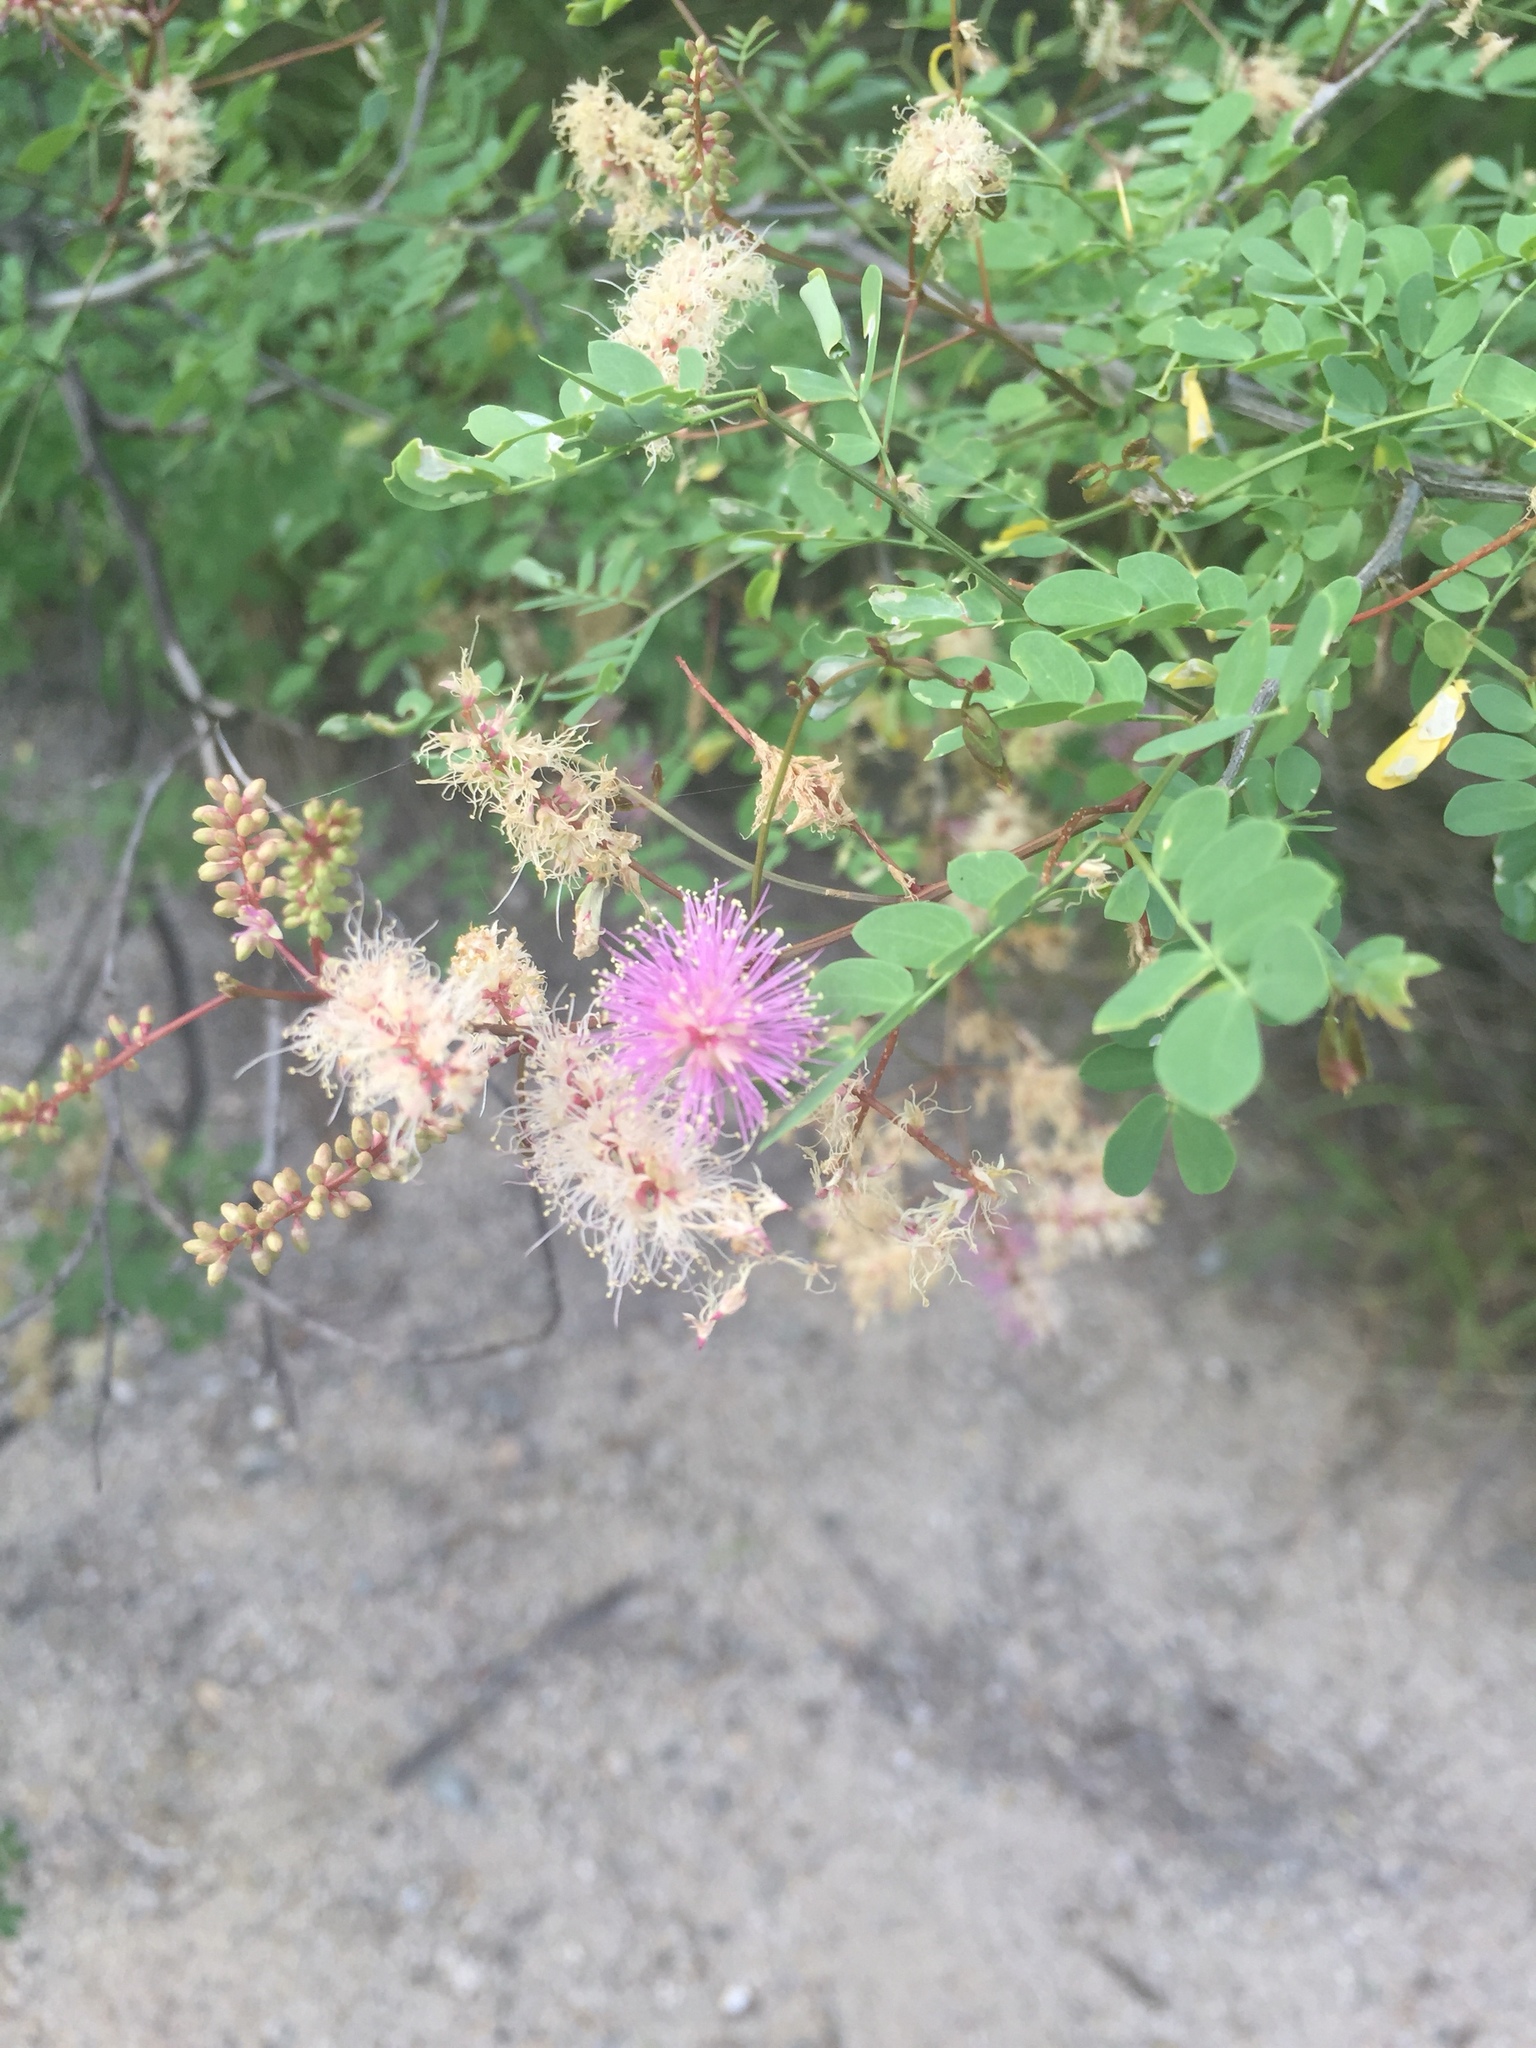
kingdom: Plantae
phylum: Tracheophyta
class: Magnoliopsida
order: Fabales
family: Fabaceae
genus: Mimosa
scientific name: Mimosa dysocarpa
